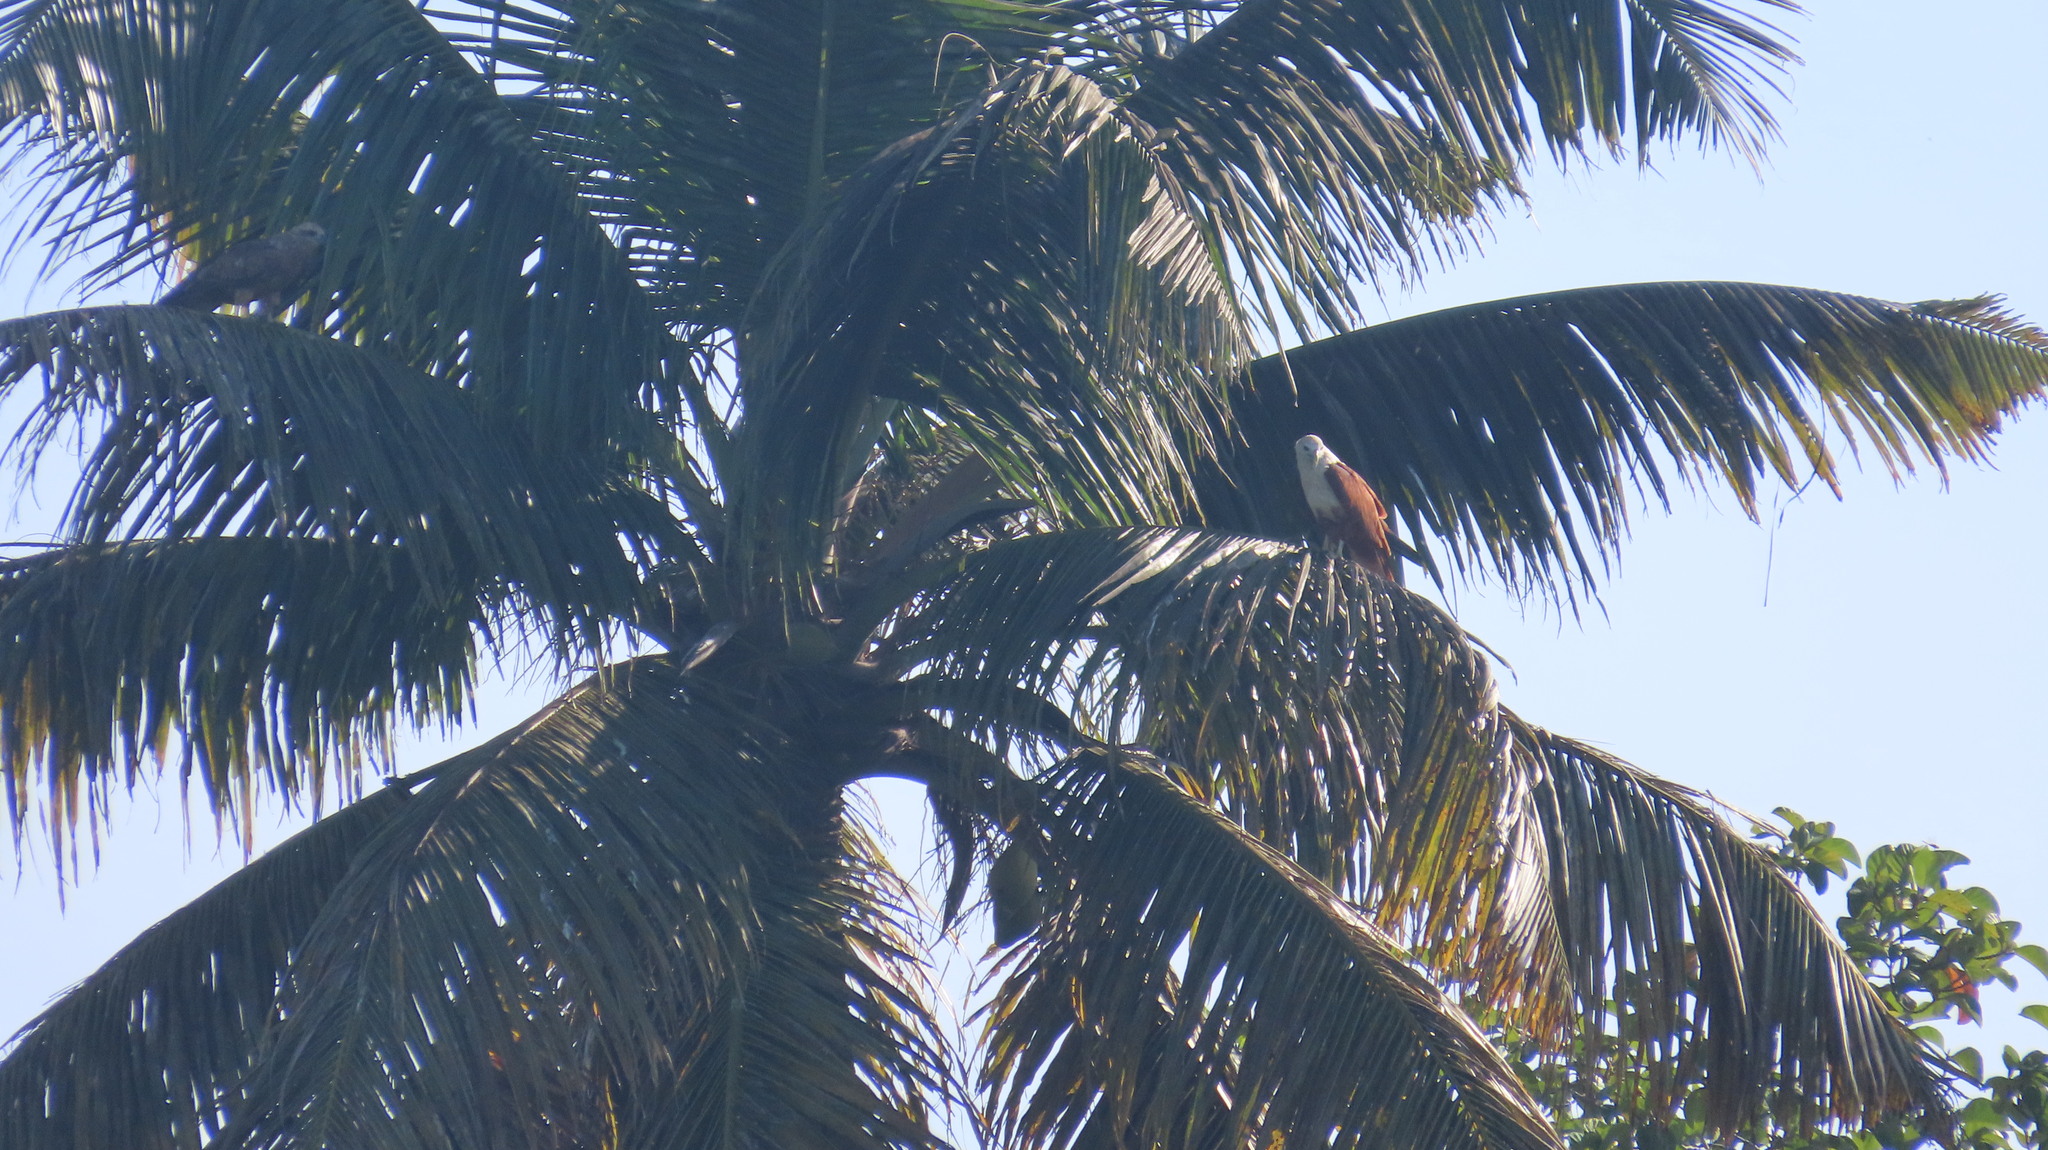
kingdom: Animalia
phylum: Chordata
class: Aves
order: Accipitriformes
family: Accipitridae
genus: Haliastur
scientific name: Haliastur indus
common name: Brahminy kite
